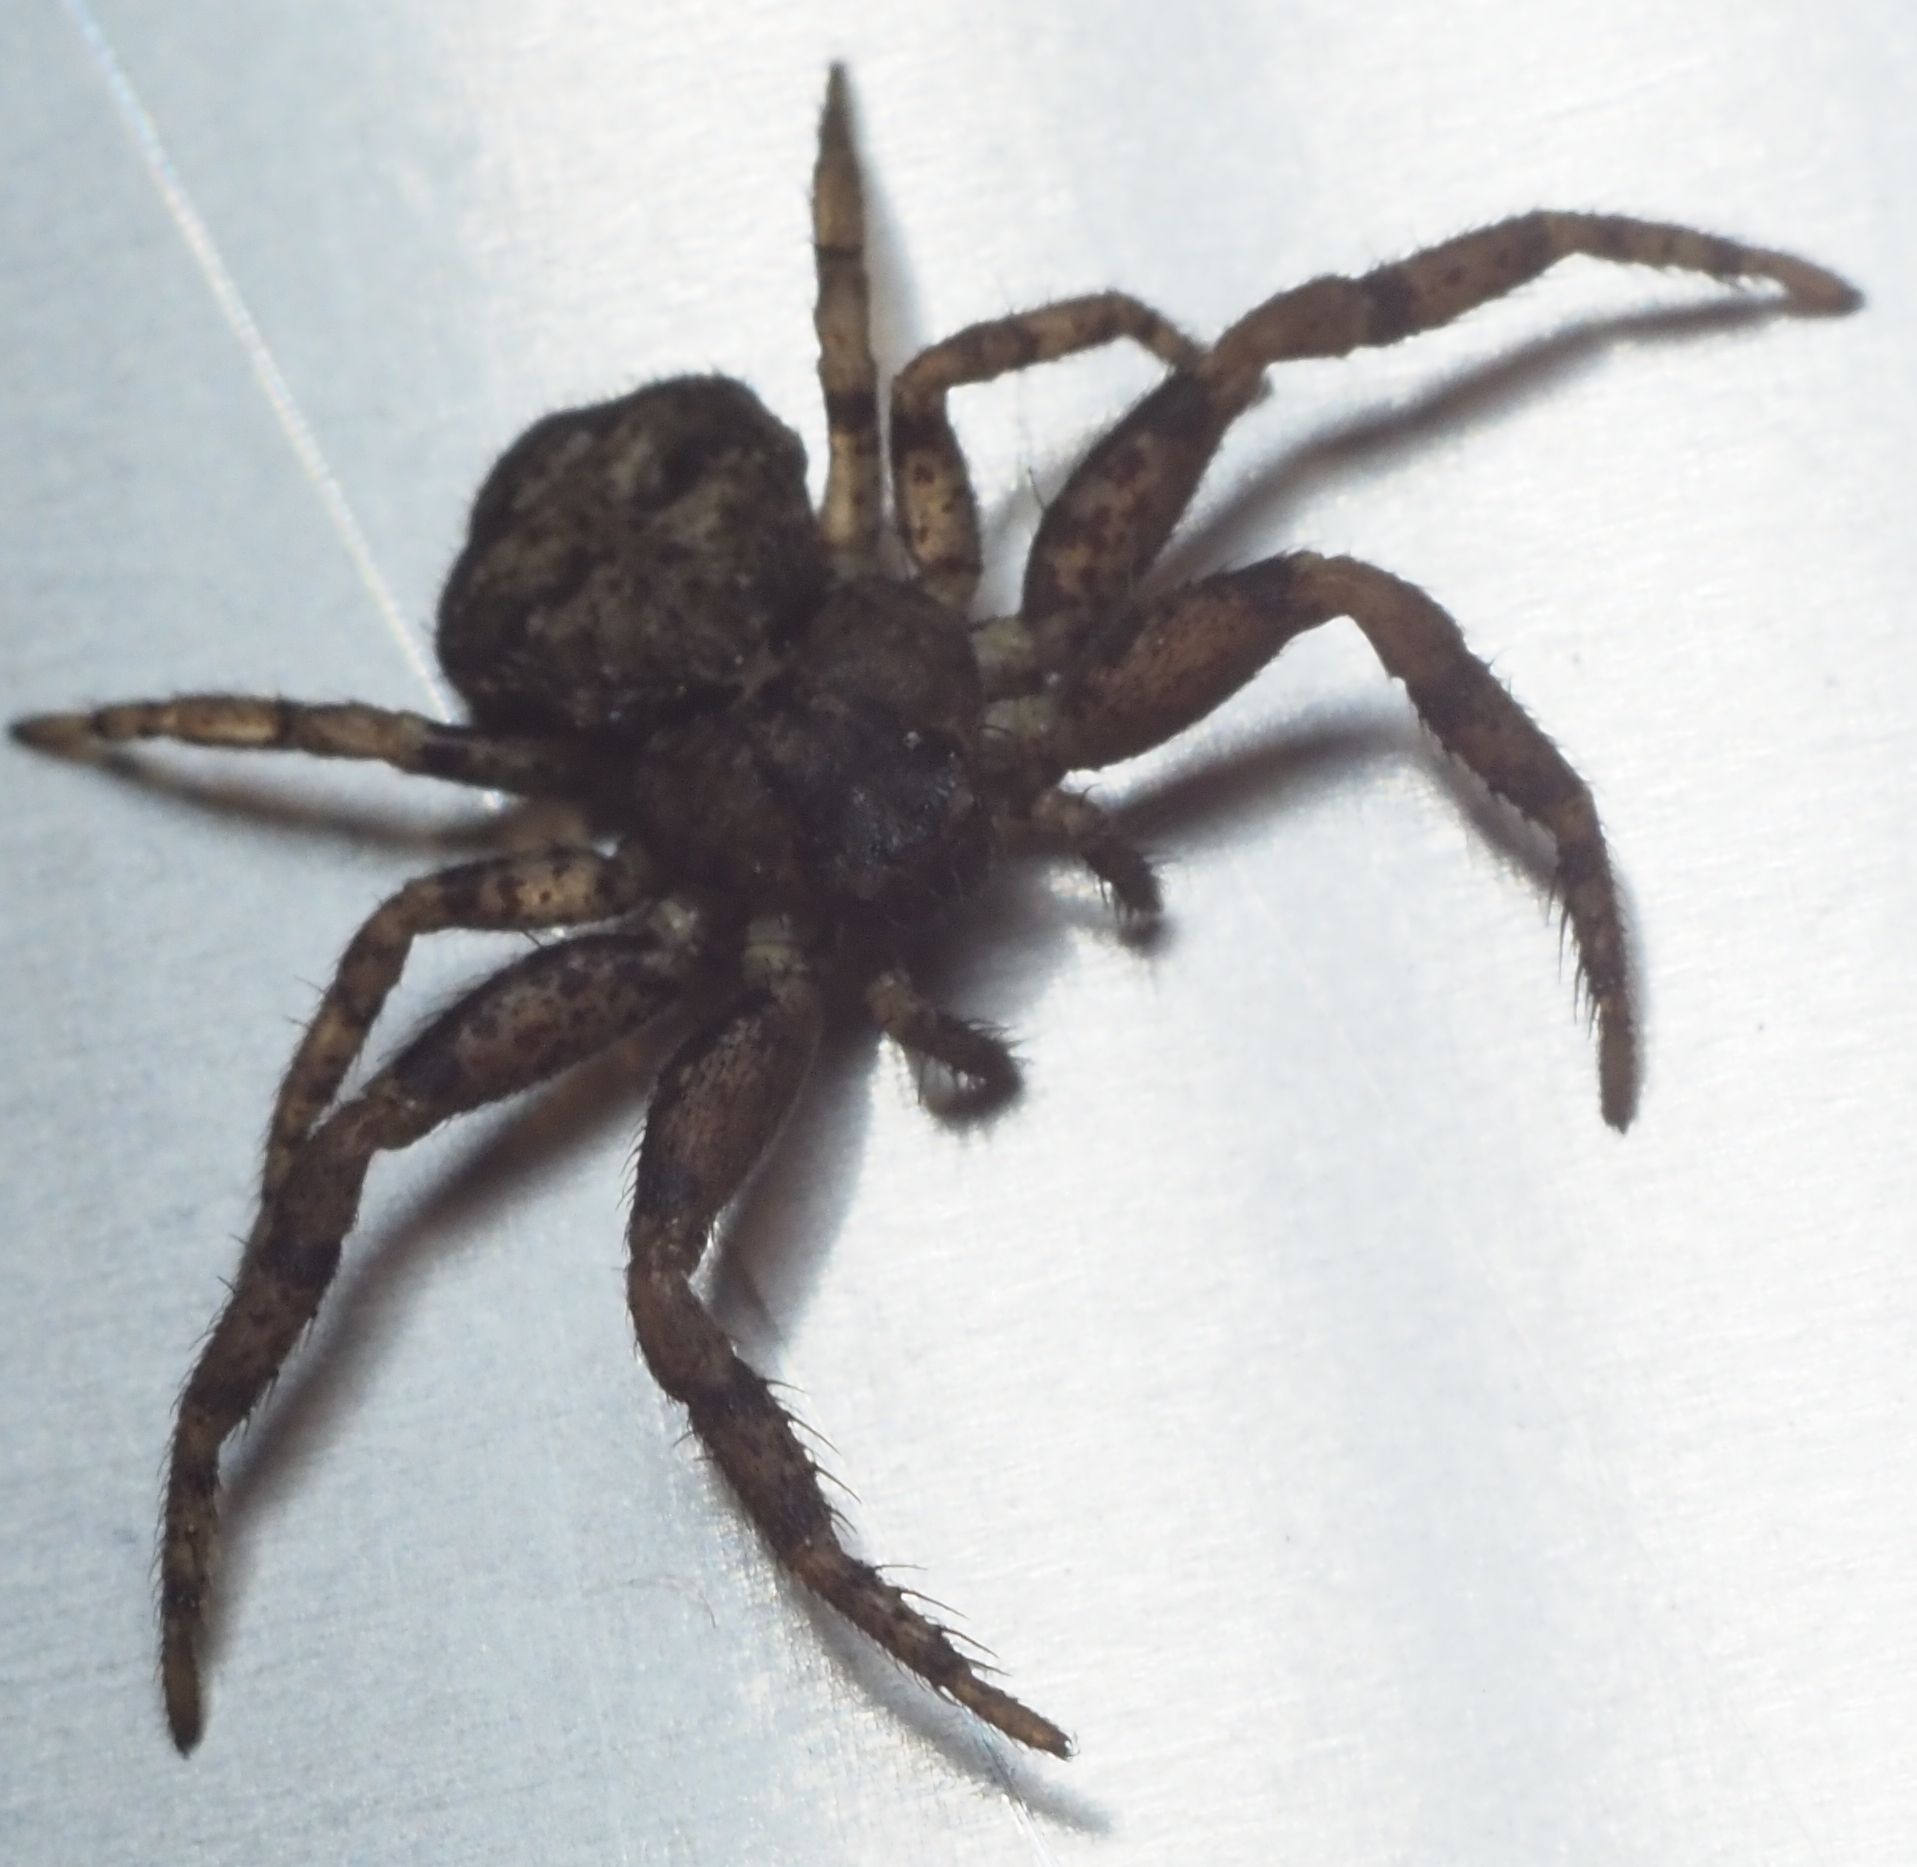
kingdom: Animalia
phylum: Arthropoda
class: Arachnida
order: Araneae
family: Thomisidae
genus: Bassaniana
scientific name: Bassaniana
